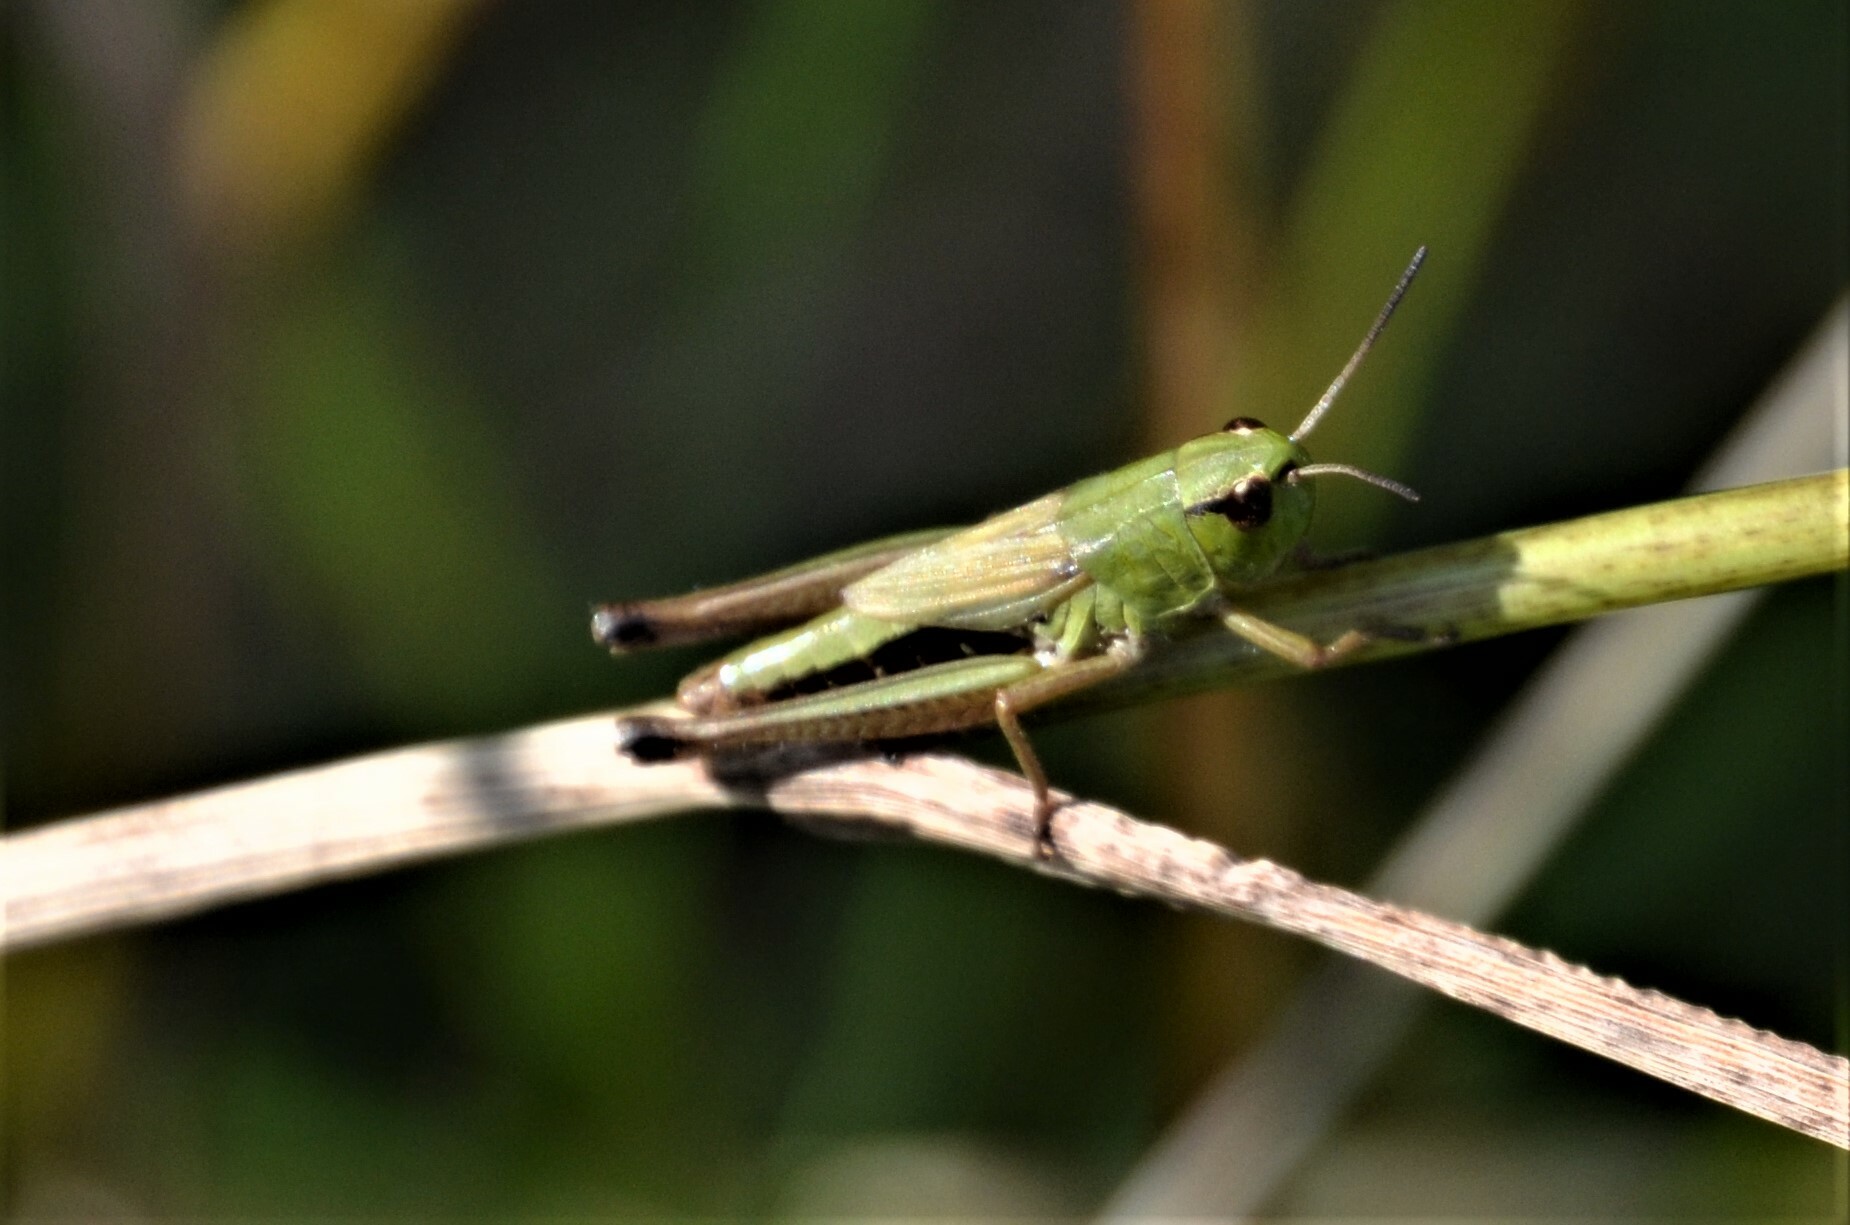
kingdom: Animalia
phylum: Arthropoda
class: Insecta
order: Orthoptera
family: Acrididae
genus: Pseudochorthippus
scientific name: Pseudochorthippus parallelus
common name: Meadow grasshopper
